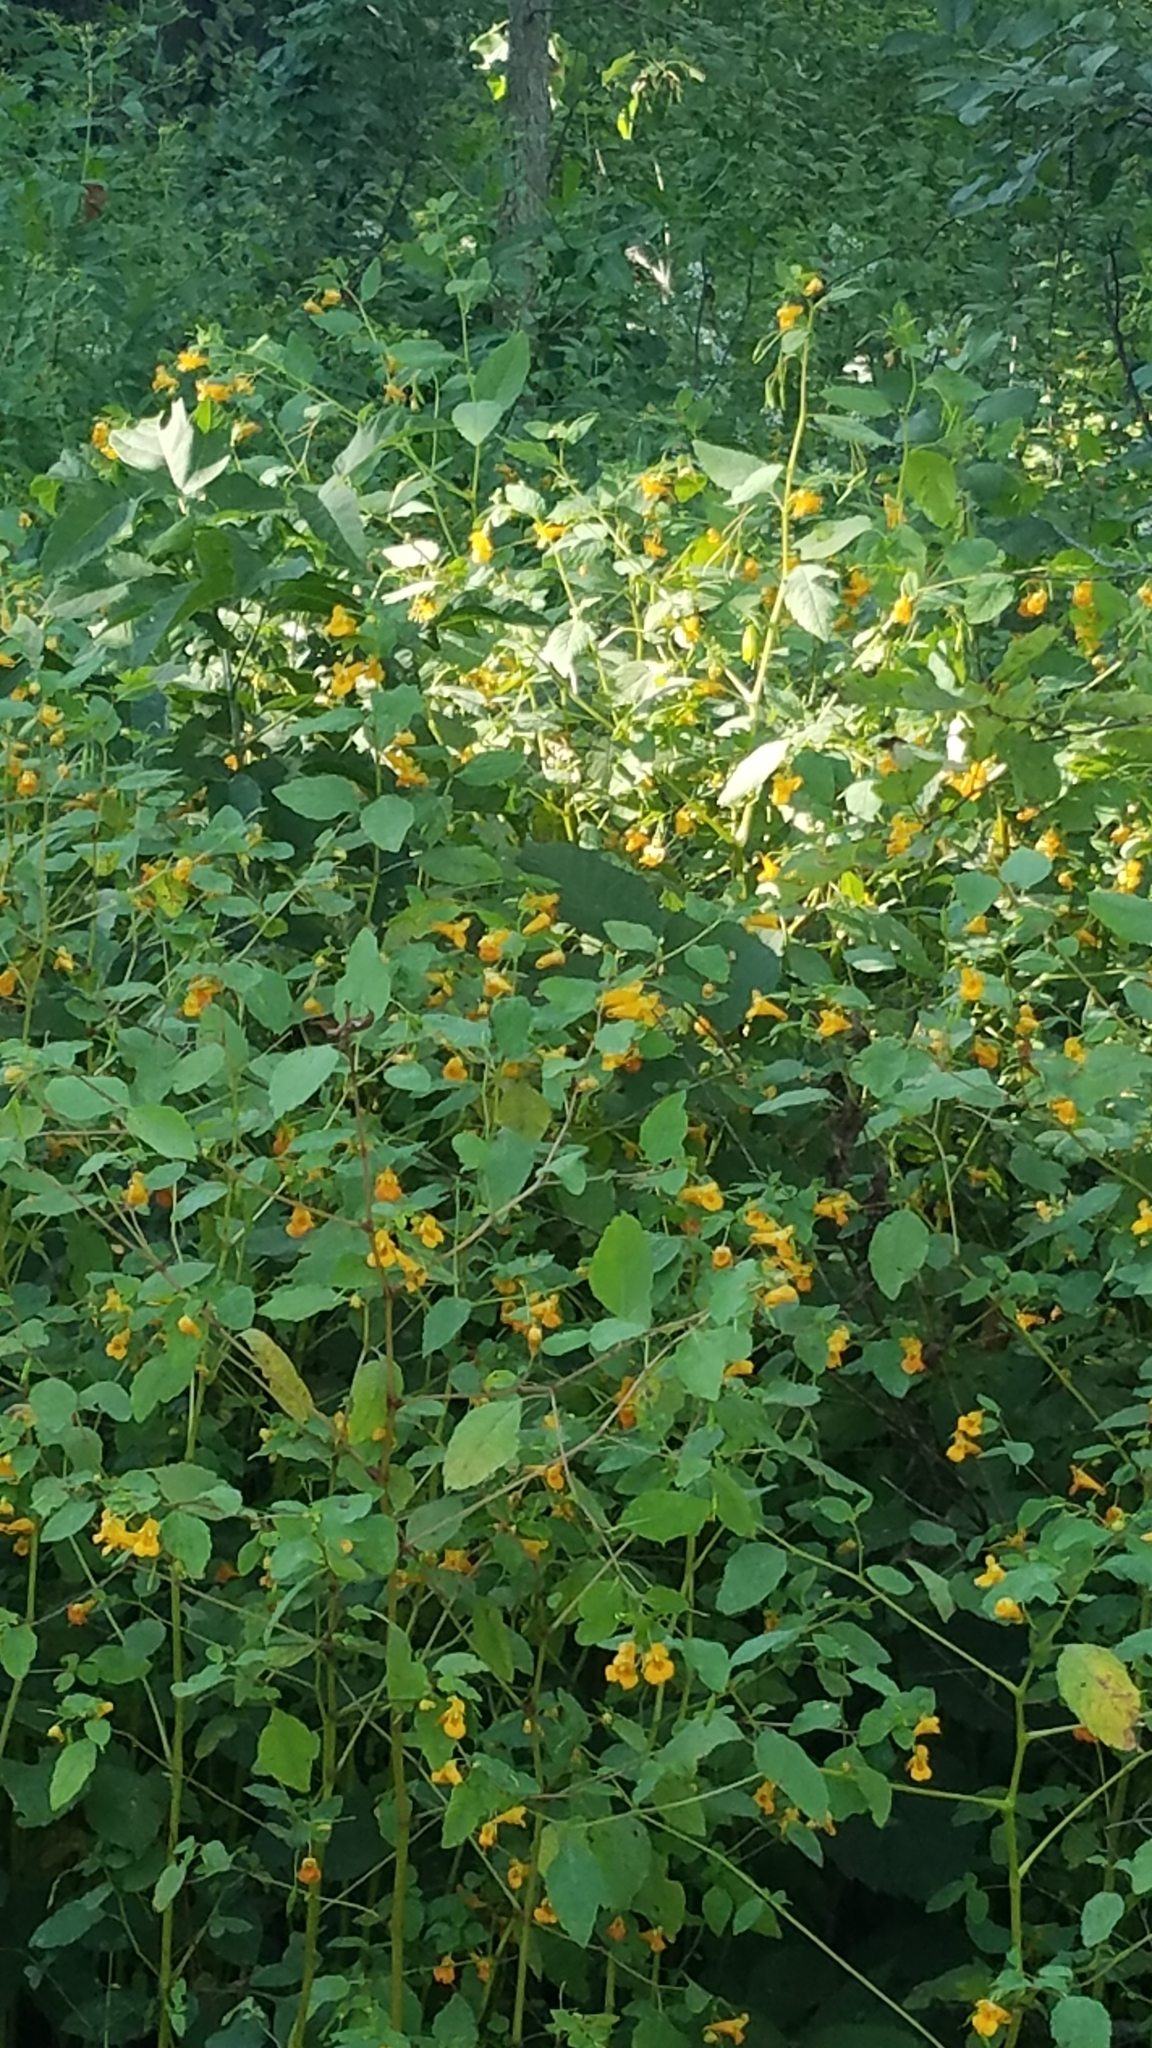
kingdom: Plantae
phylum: Tracheophyta
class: Magnoliopsida
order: Ericales
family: Balsaminaceae
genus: Impatiens
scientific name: Impatiens capensis
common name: Orange balsam
